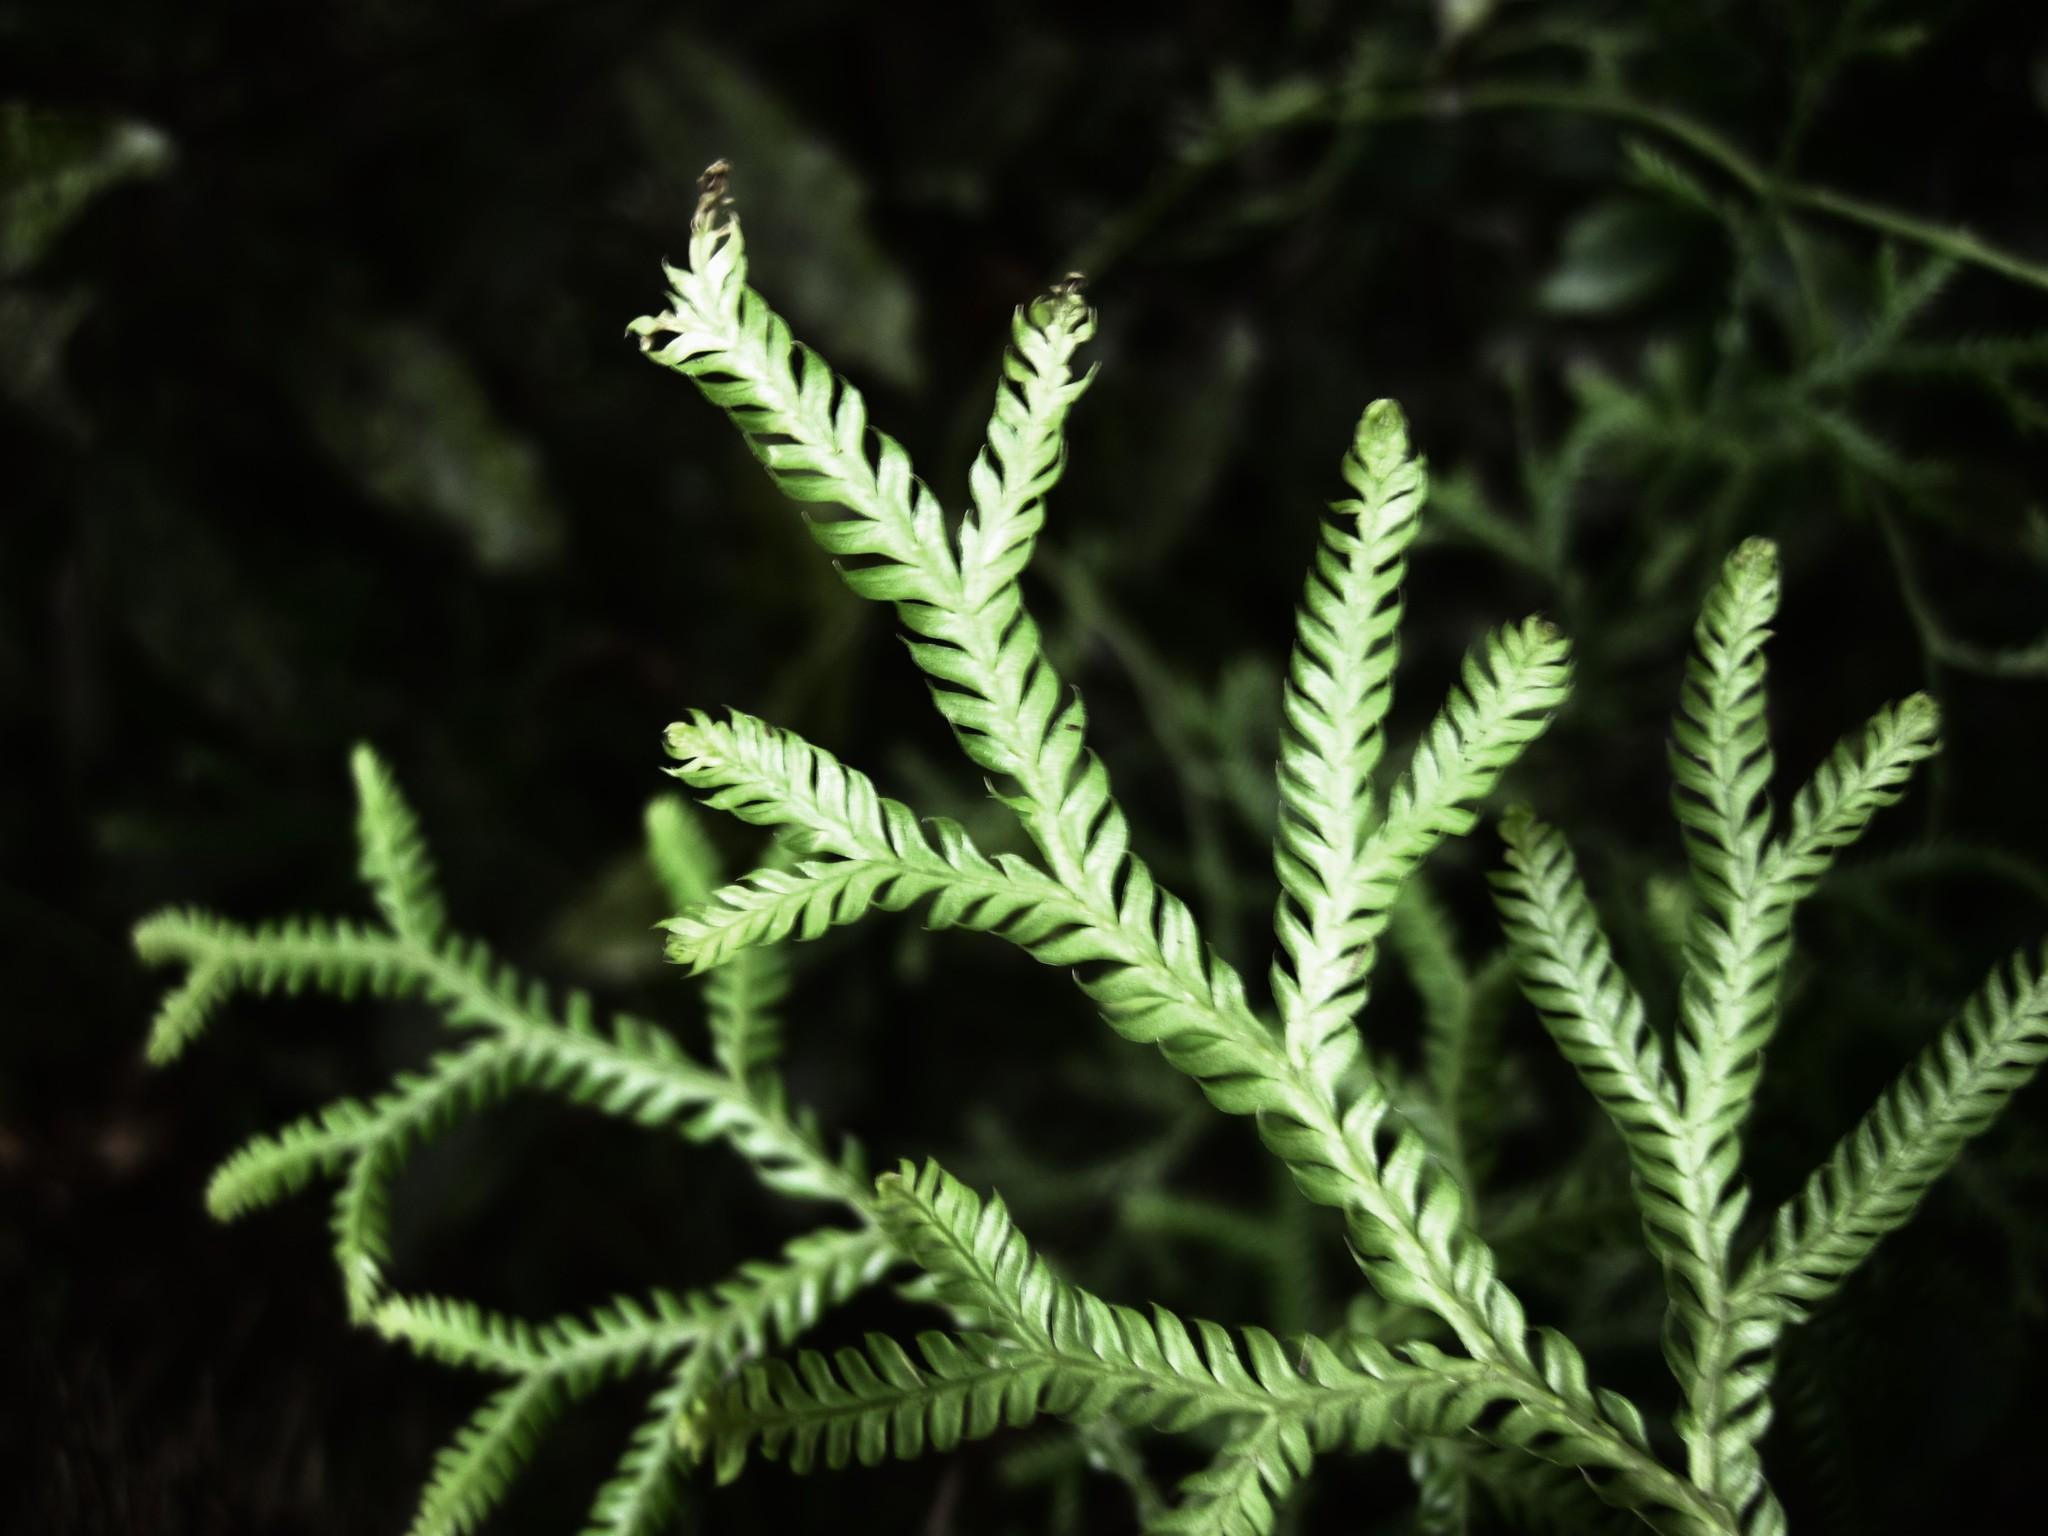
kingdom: Plantae
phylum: Tracheophyta
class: Lycopodiopsida
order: Lycopodiales
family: Lycopodiaceae
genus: Lycopodium
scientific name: Lycopodium volubile
